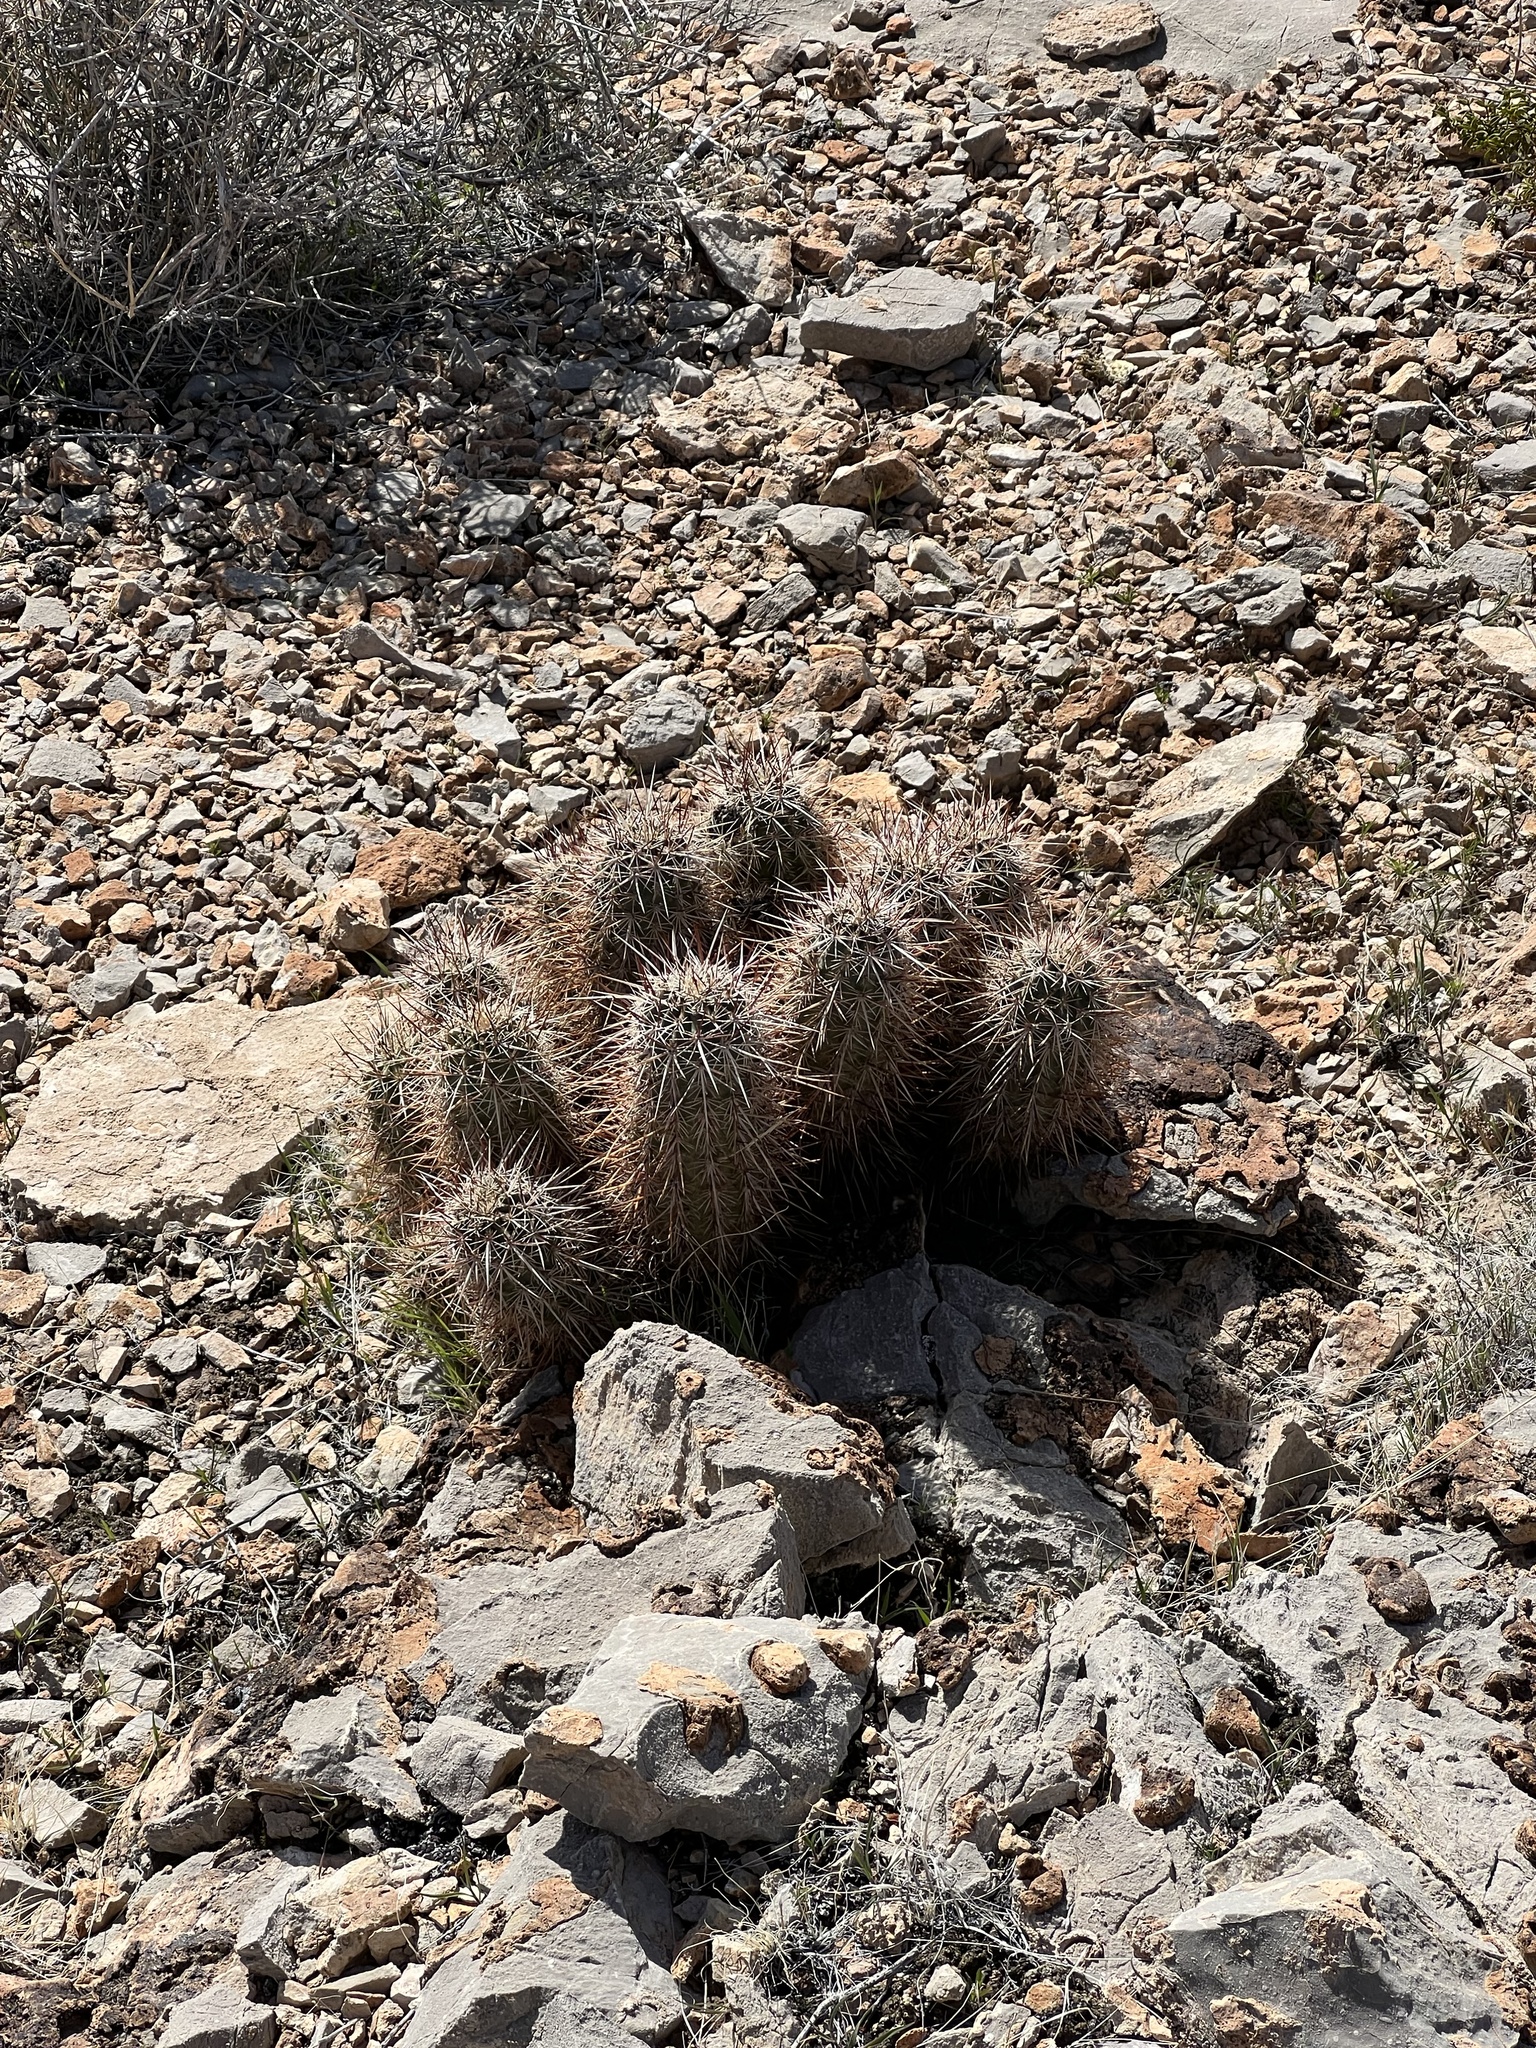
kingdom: Plantae
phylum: Tracheophyta
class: Magnoliopsida
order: Caryophyllales
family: Cactaceae
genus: Echinocereus
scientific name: Echinocereus engelmannii
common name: Engelmann's hedgehog cactus
